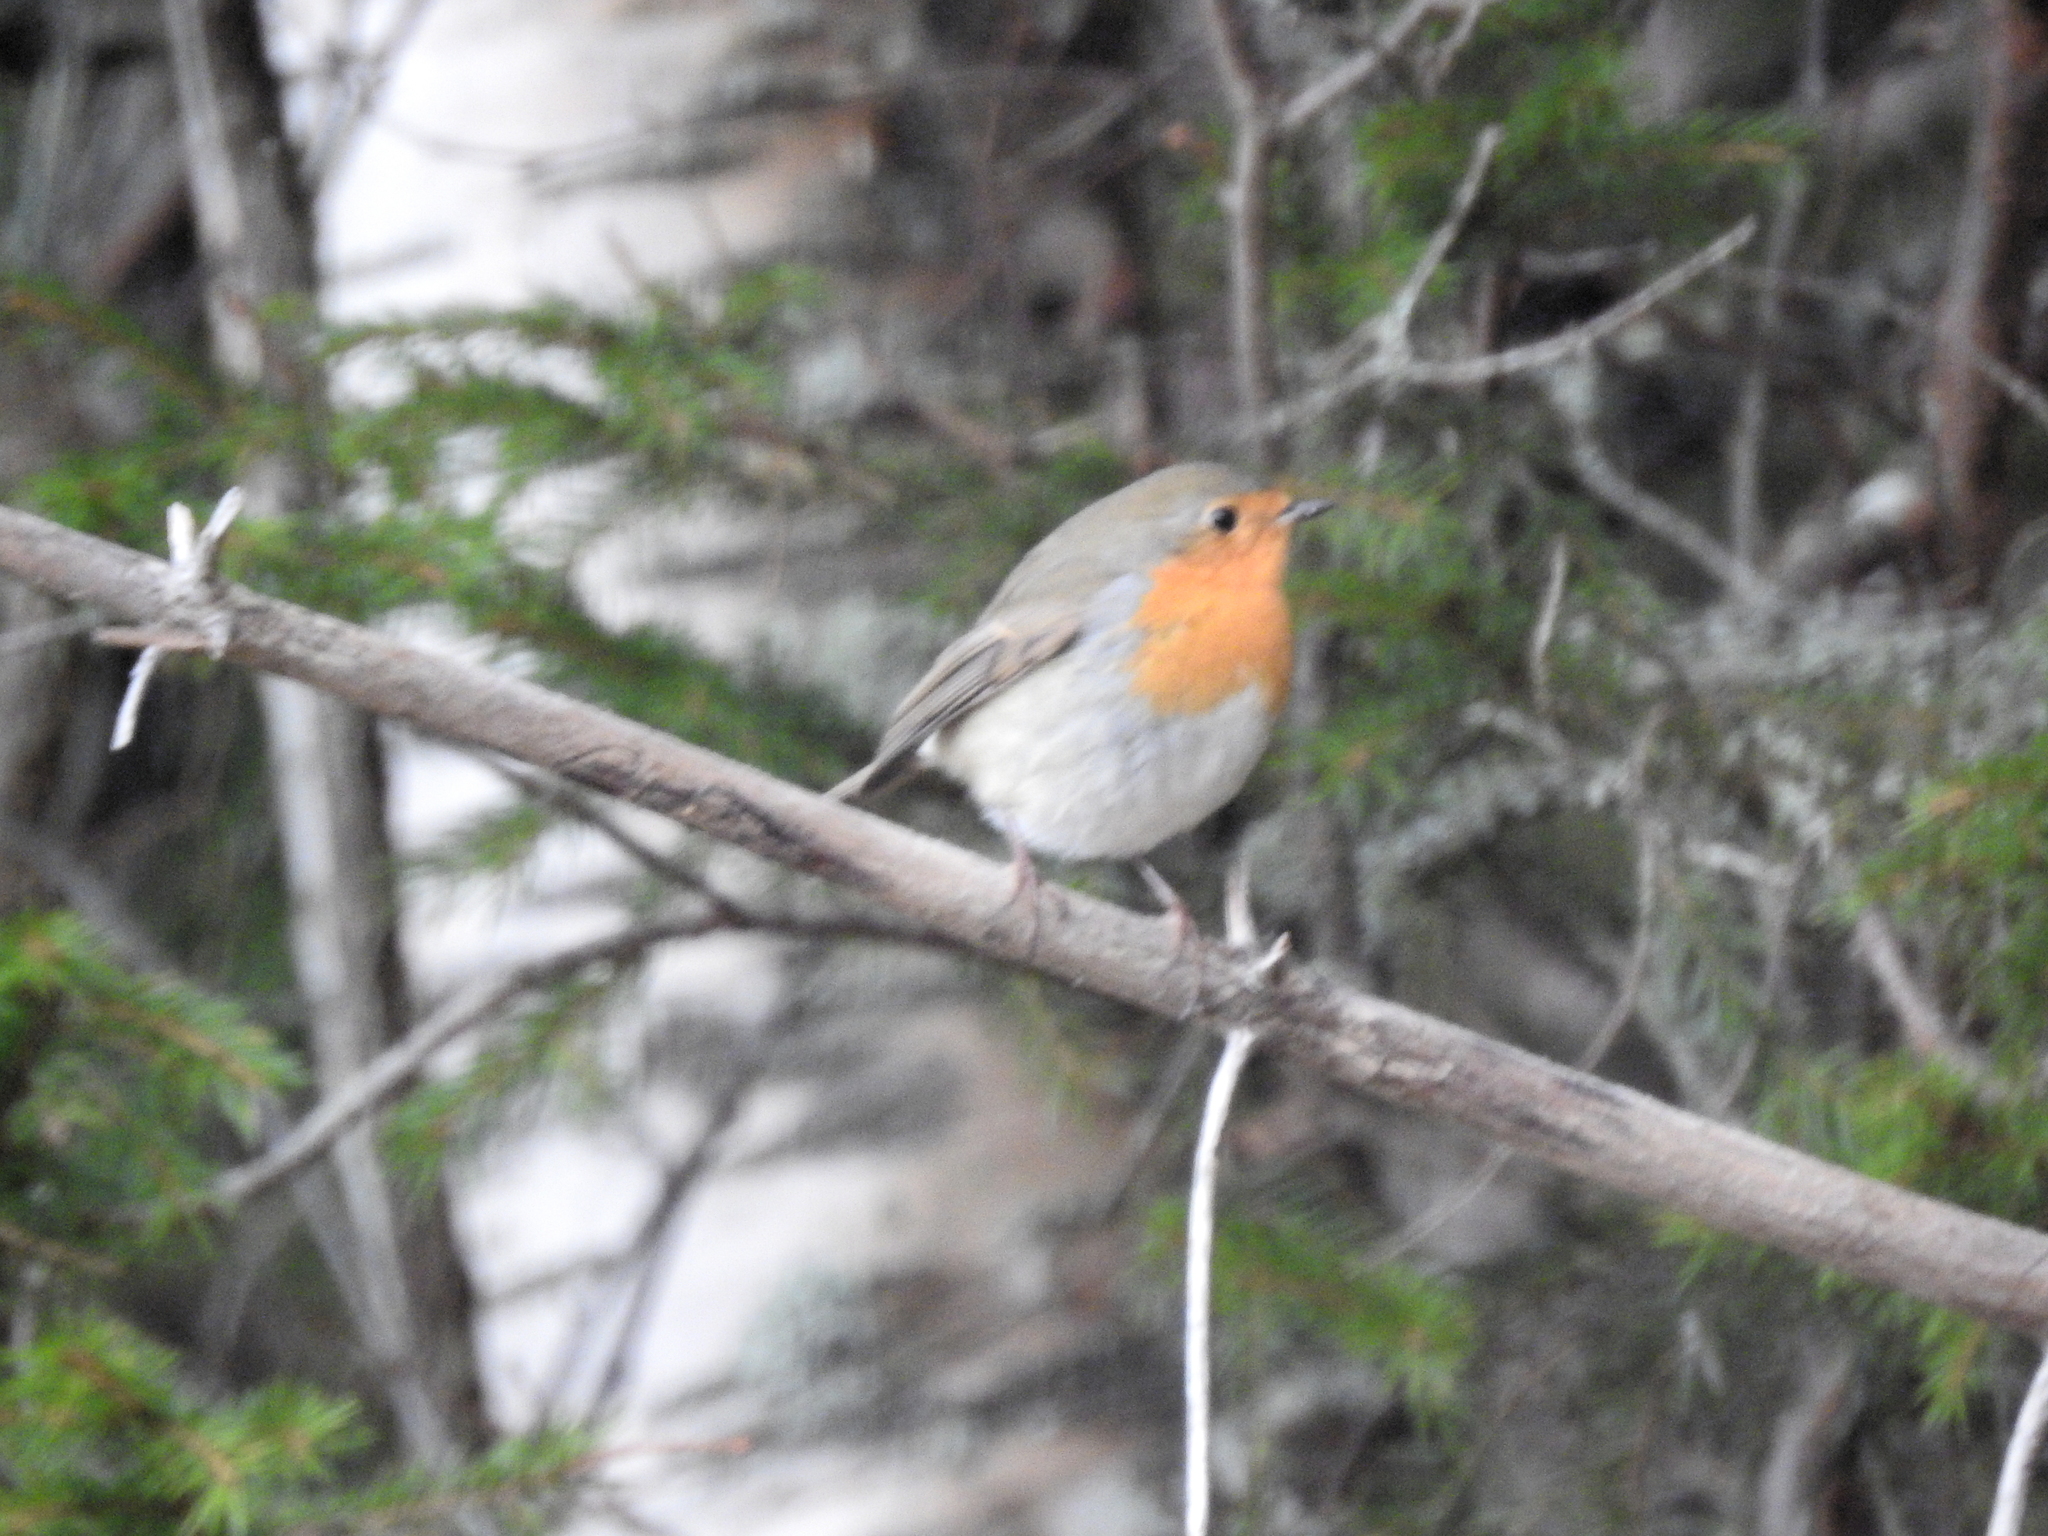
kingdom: Animalia
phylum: Chordata
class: Aves
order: Passeriformes
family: Muscicapidae
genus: Erithacus
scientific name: Erithacus rubecula
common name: European robin
